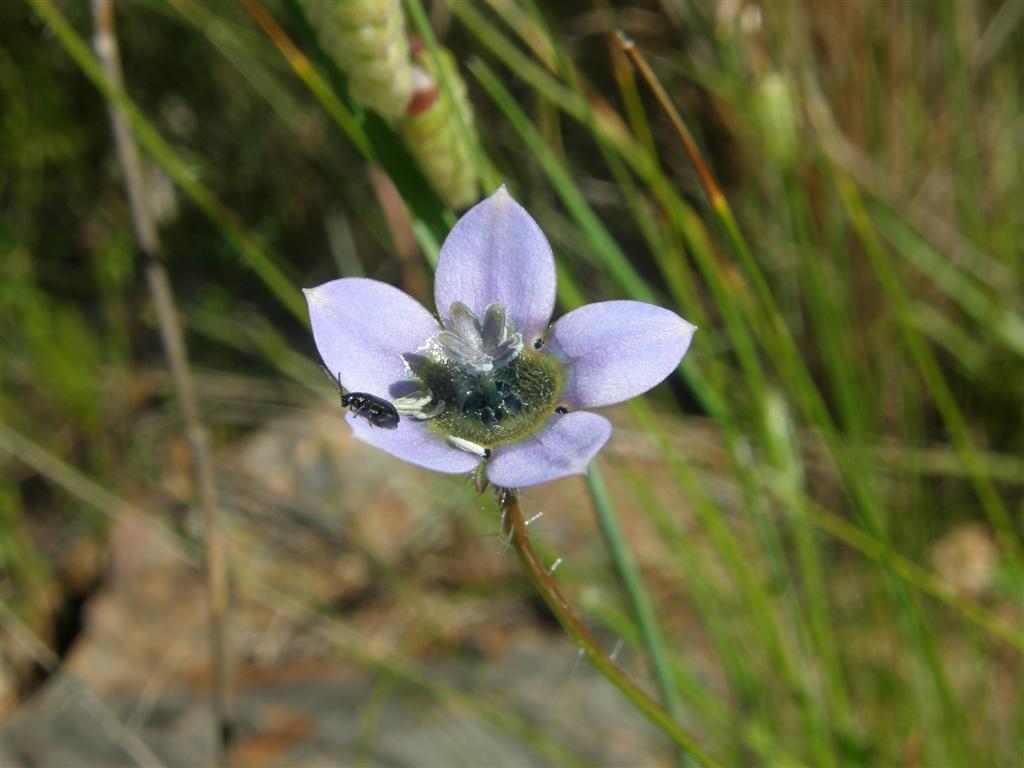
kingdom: Plantae
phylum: Tracheophyta
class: Magnoliopsida
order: Asterales
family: Campanulaceae
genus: Wahlenbergia
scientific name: Wahlenbergia capensis
